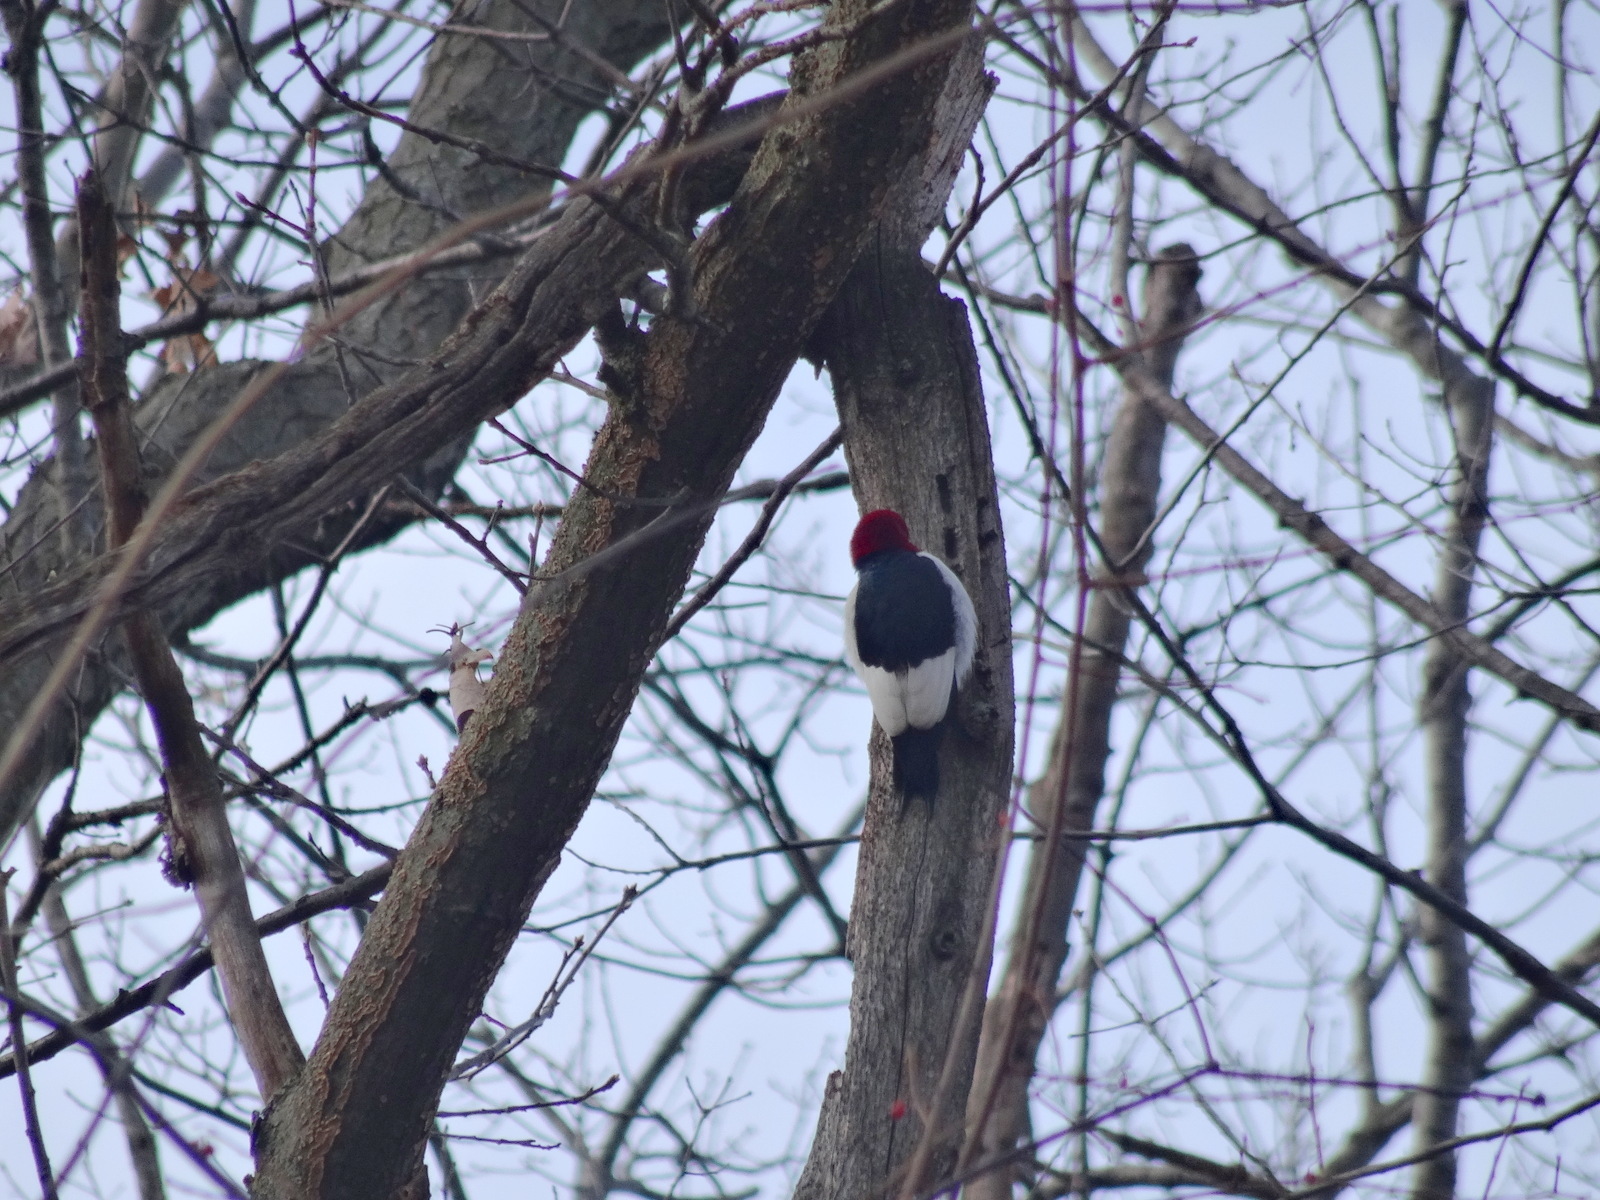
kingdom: Animalia
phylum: Chordata
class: Aves
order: Piciformes
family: Picidae
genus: Melanerpes
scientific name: Melanerpes erythrocephalus
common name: Red-headed woodpecker
